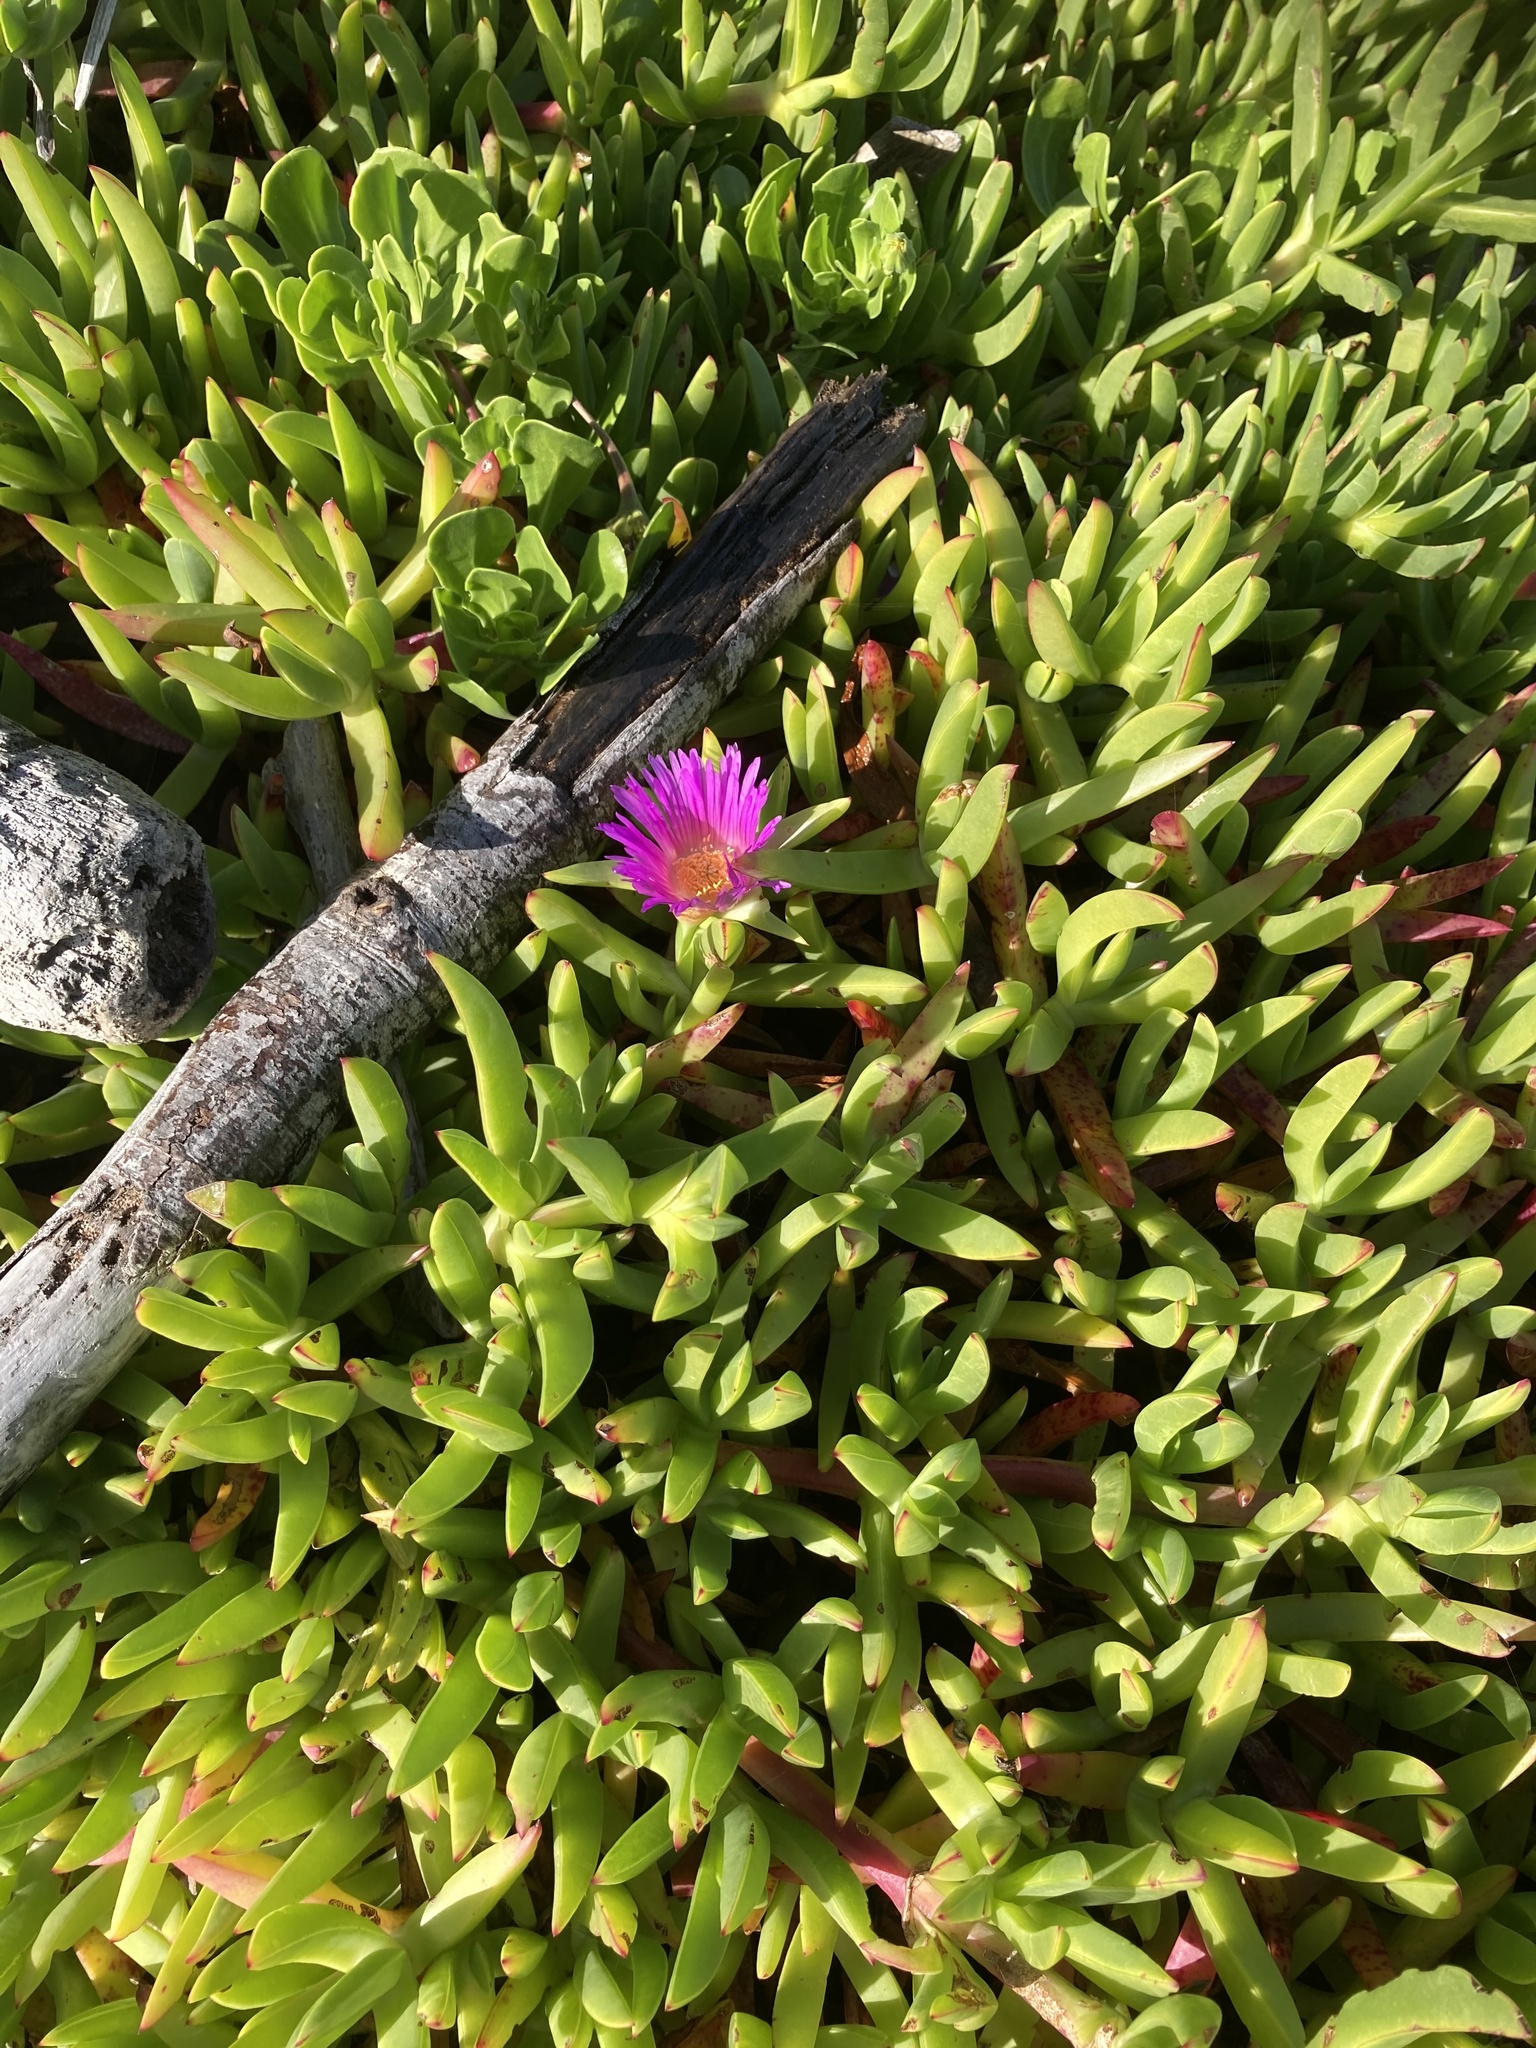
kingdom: Plantae
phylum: Tracheophyta
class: Magnoliopsida
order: Caryophyllales
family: Aizoaceae
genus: Carpobrotus
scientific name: Carpobrotus chilensis
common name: Sea fig
